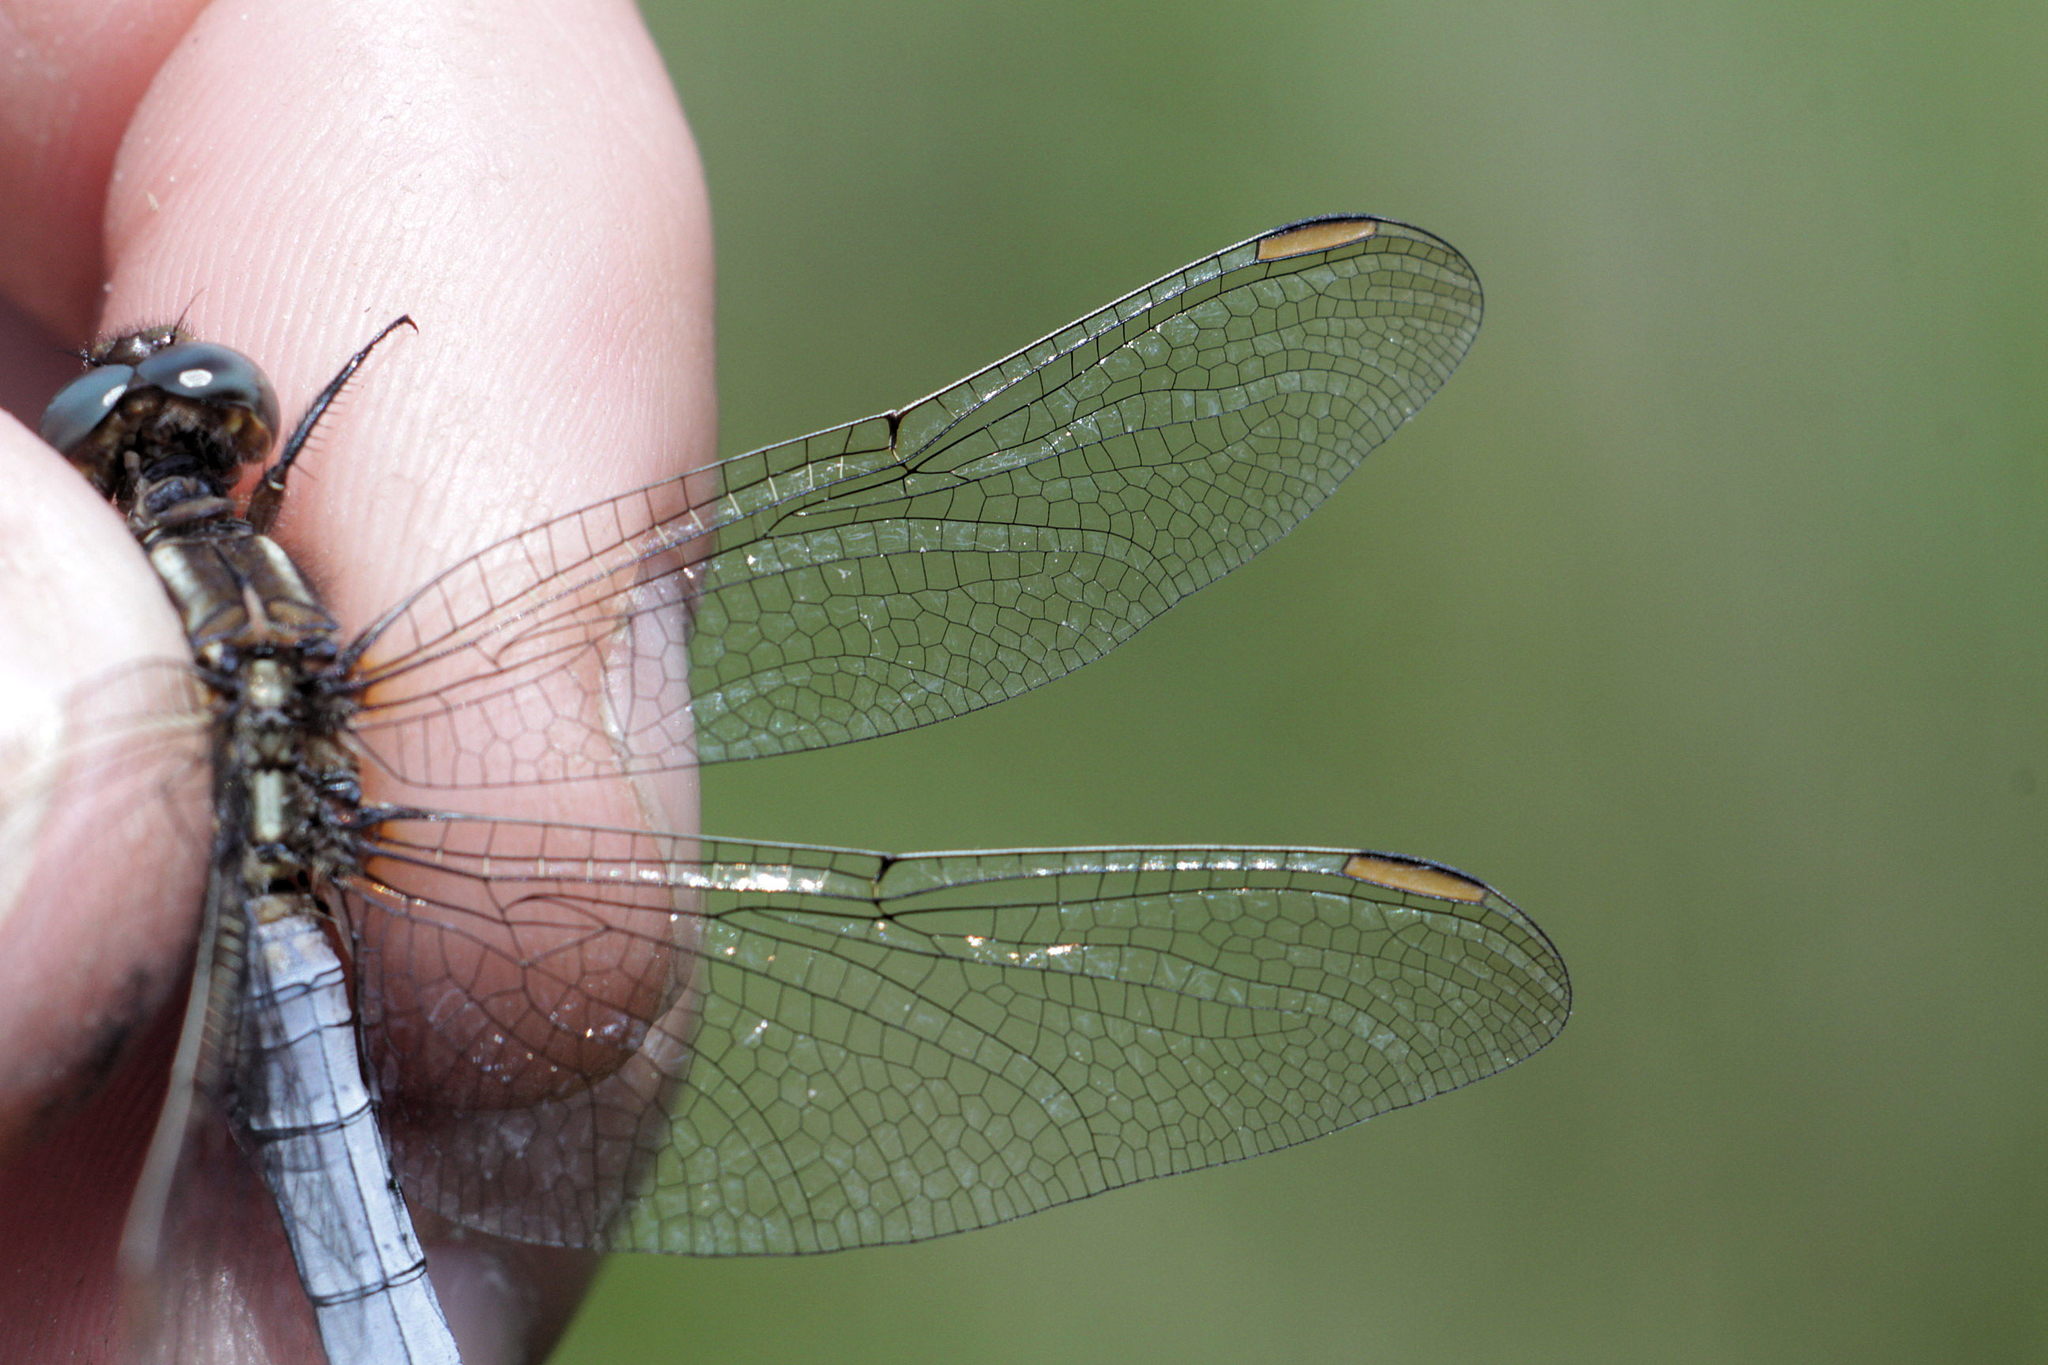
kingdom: Animalia
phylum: Arthropoda
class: Insecta
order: Odonata
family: Libellulidae
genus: Orthetrum
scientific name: Orthetrum coerulescens
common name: Keeled skimmer
